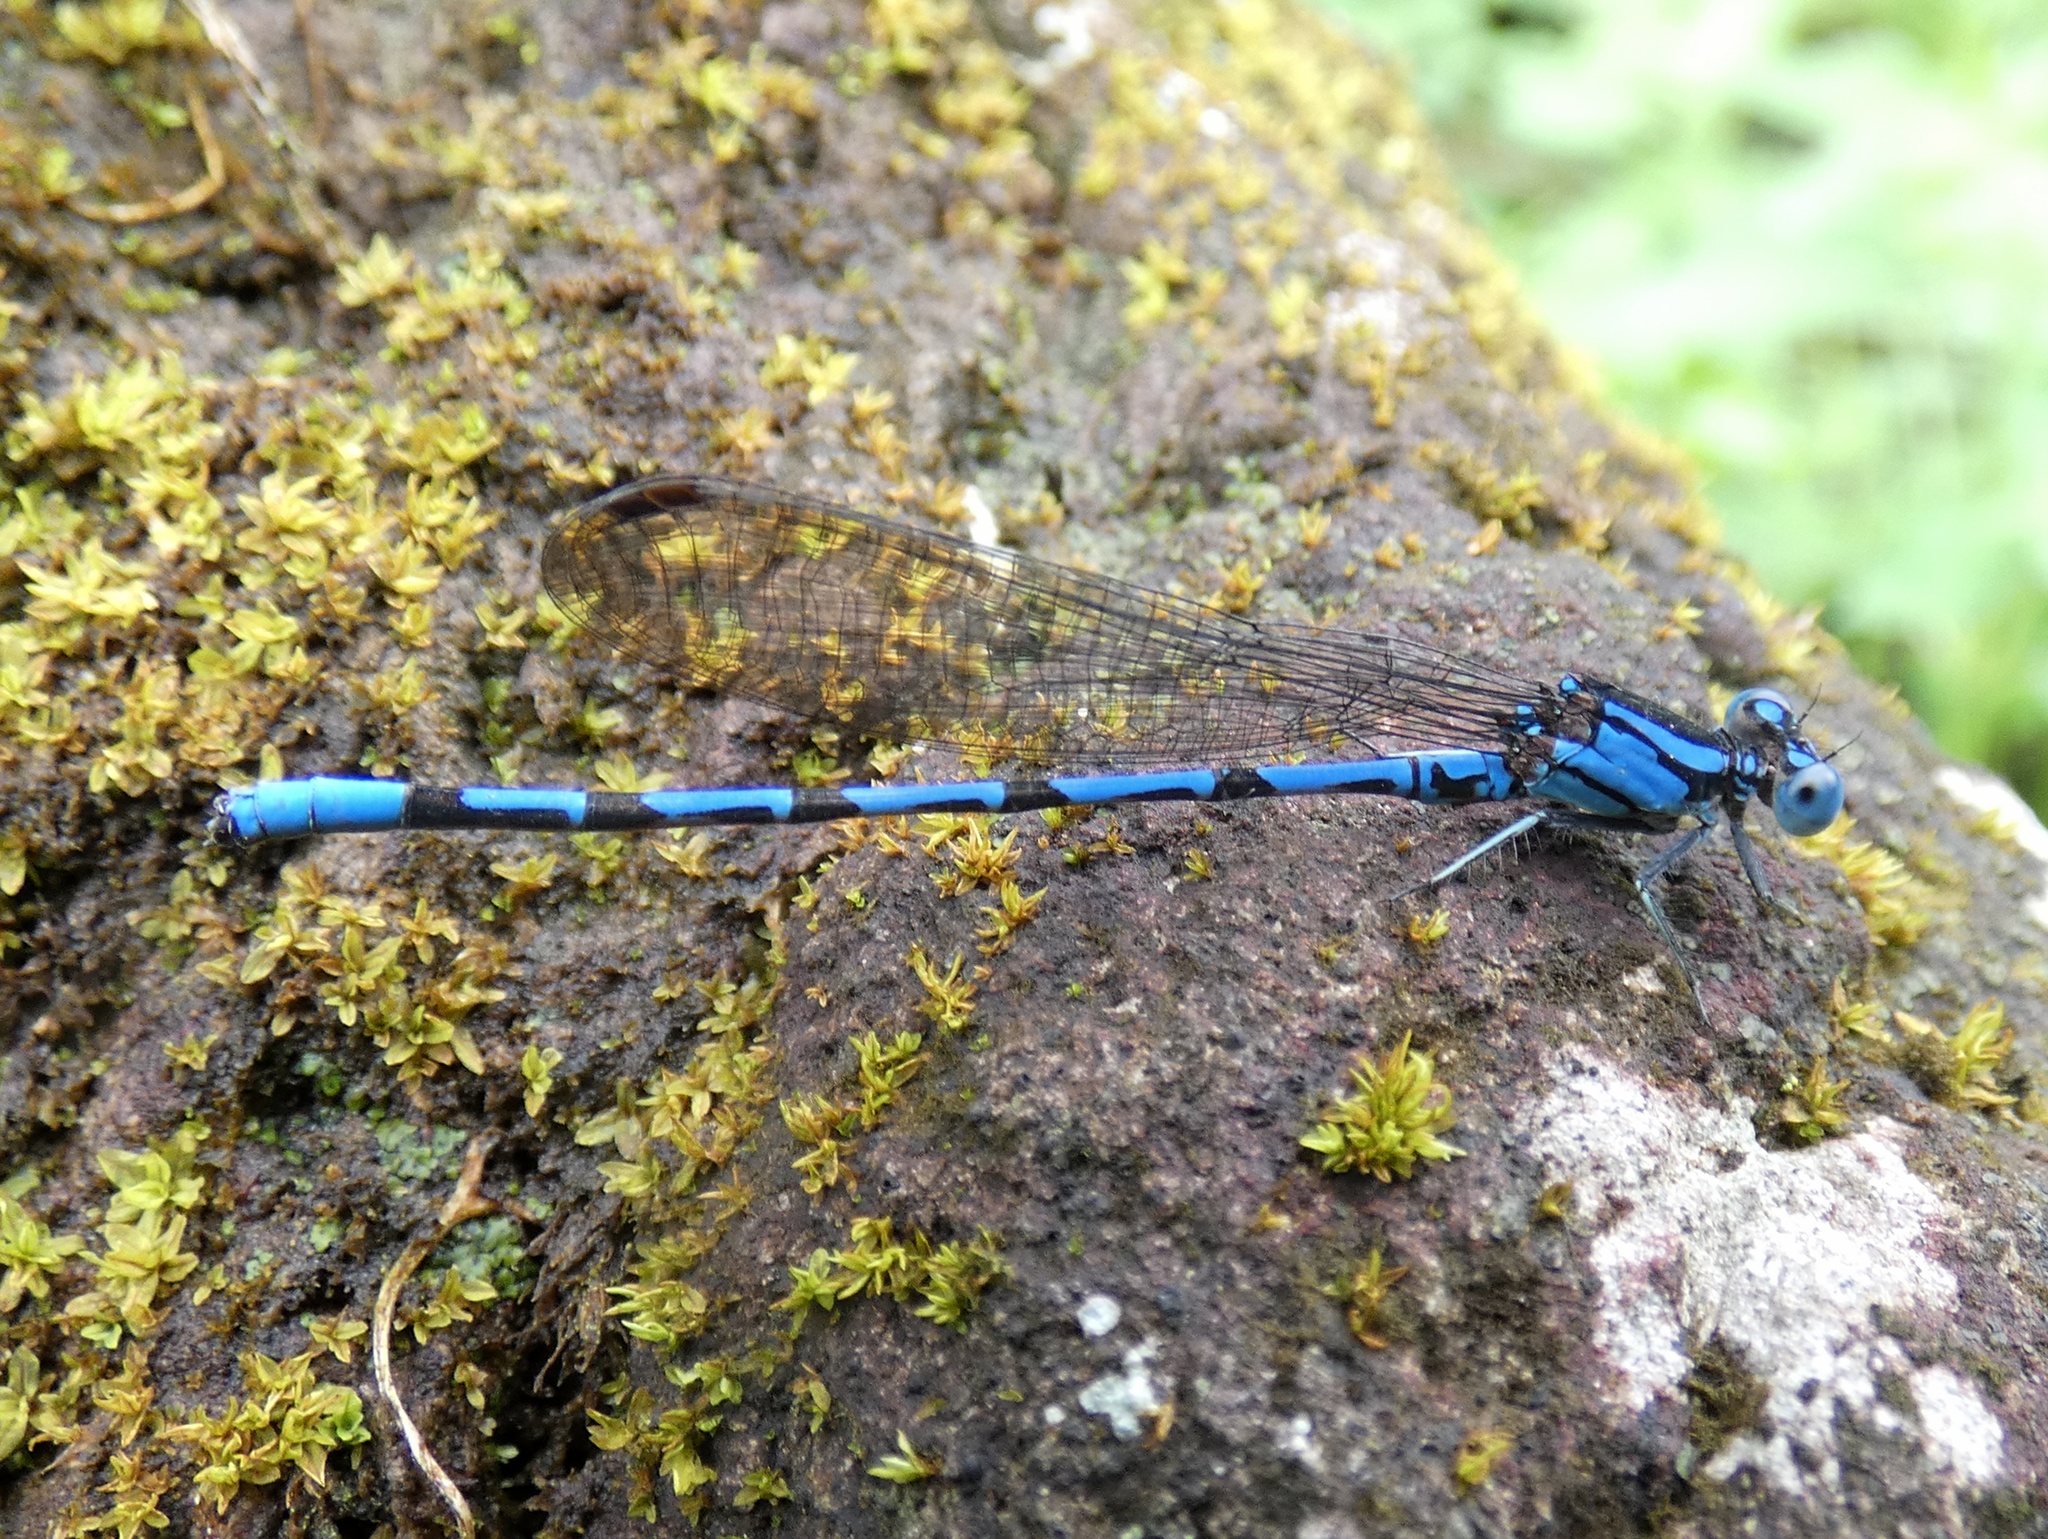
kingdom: Animalia
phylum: Arthropoda
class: Insecta
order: Odonata
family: Coenagrionidae
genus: Argia
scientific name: Argia elongata
